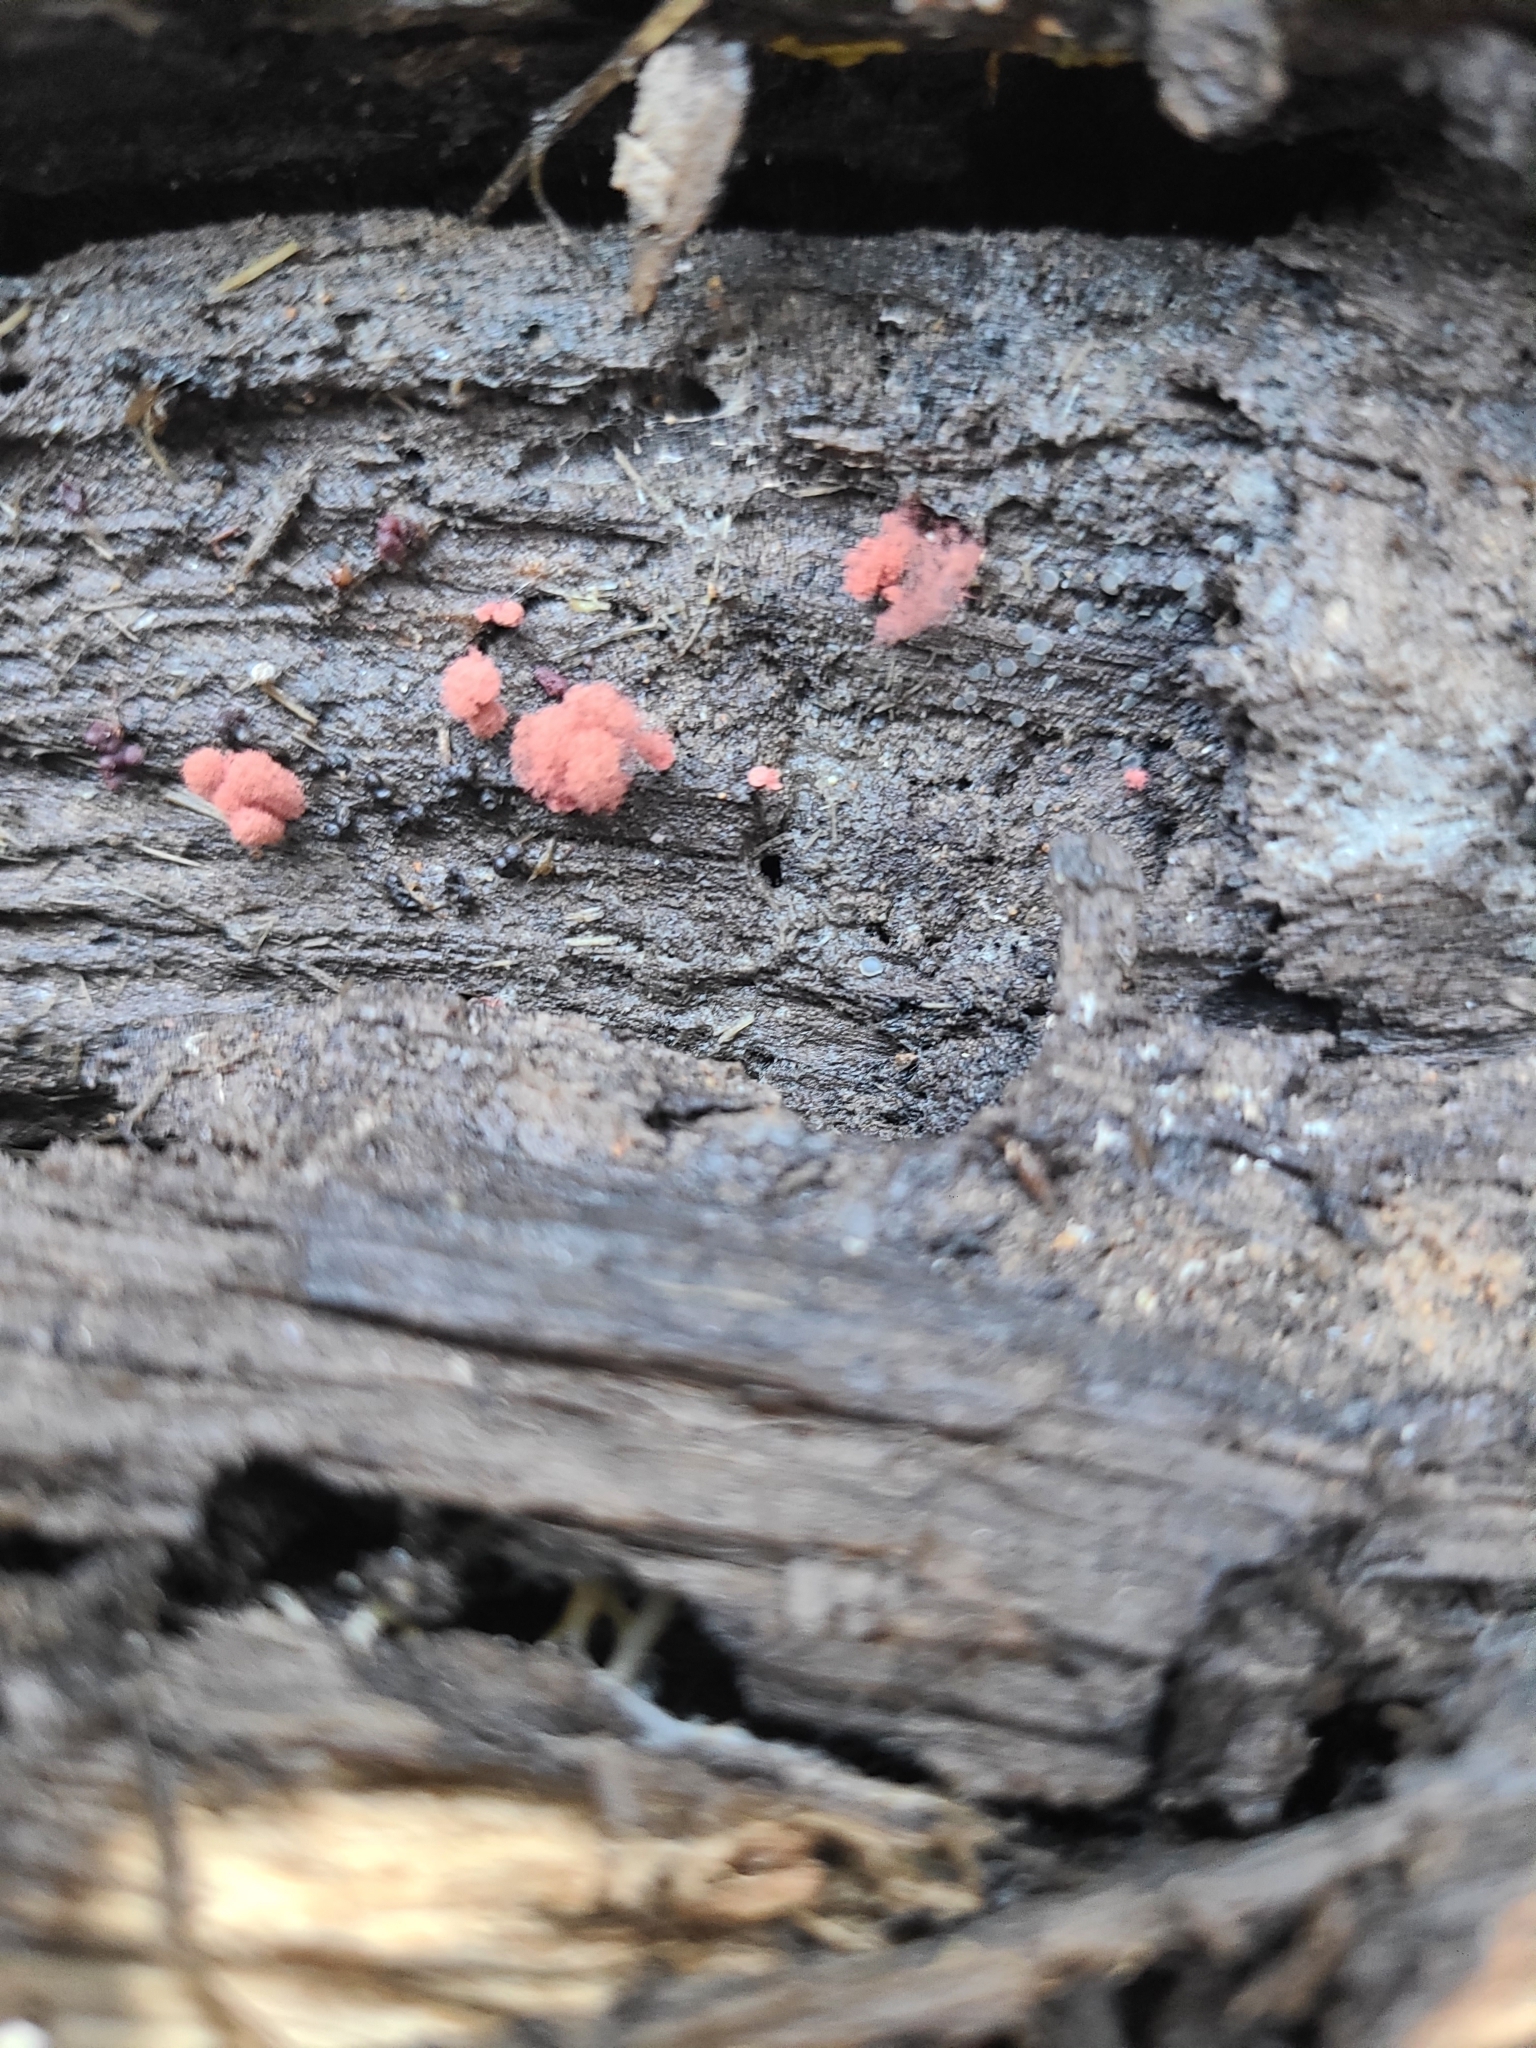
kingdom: Protozoa
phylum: Mycetozoa
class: Myxomycetes
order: Trichiales
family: Arcyriaceae
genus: Arcyria
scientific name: Arcyria denudata
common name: Carnival candy slime mold
